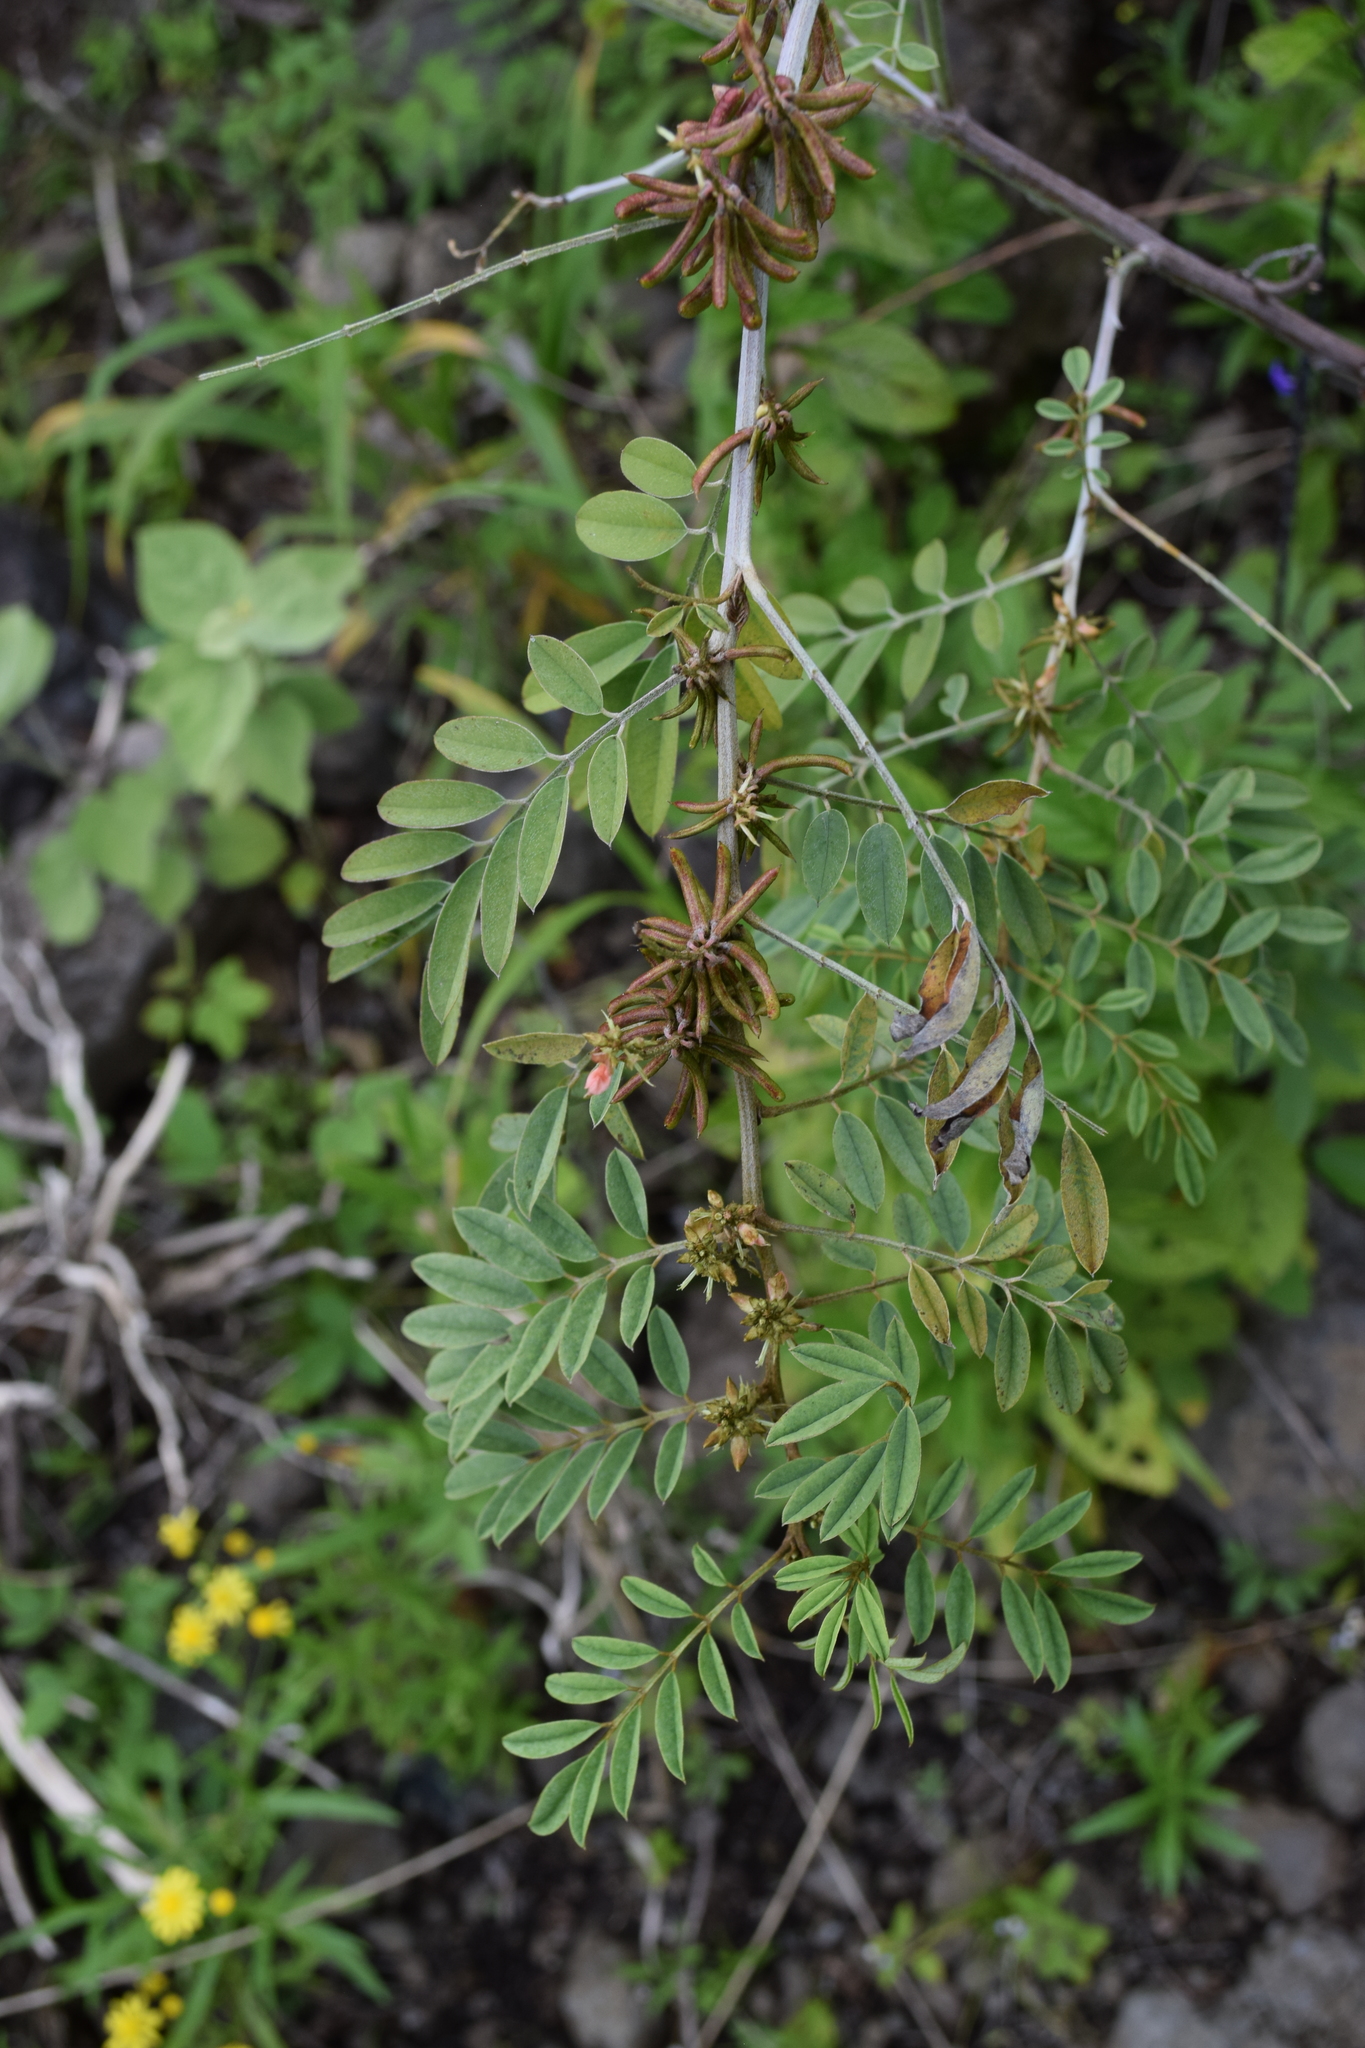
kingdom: Plantae
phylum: Tracheophyta
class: Magnoliopsida
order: Fabales
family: Fabaceae
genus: Indigofera
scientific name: Indigofera suffruticosa
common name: Anil de pasto
